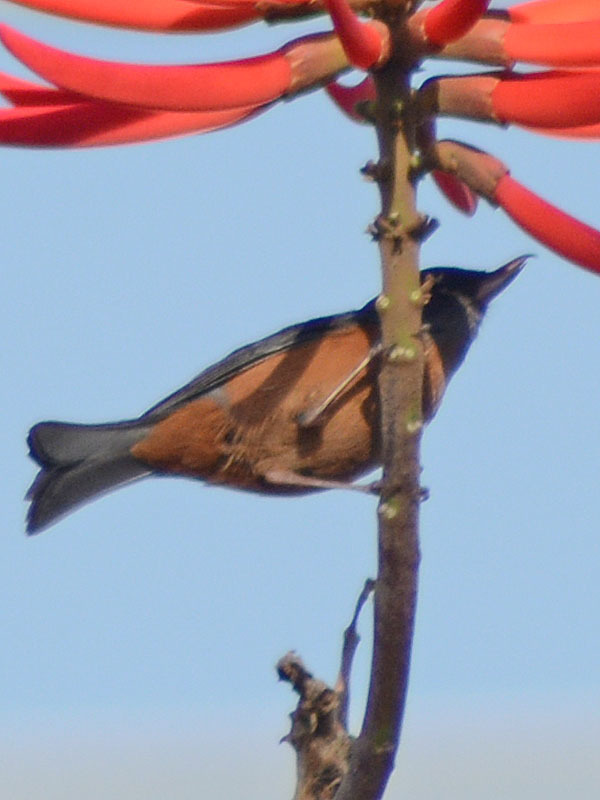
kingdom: Animalia
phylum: Chordata
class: Aves
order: Passeriformes
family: Thraupidae
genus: Diglossa
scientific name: Diglossa baritula
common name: Cinnamon-bellied flowerpiercer
